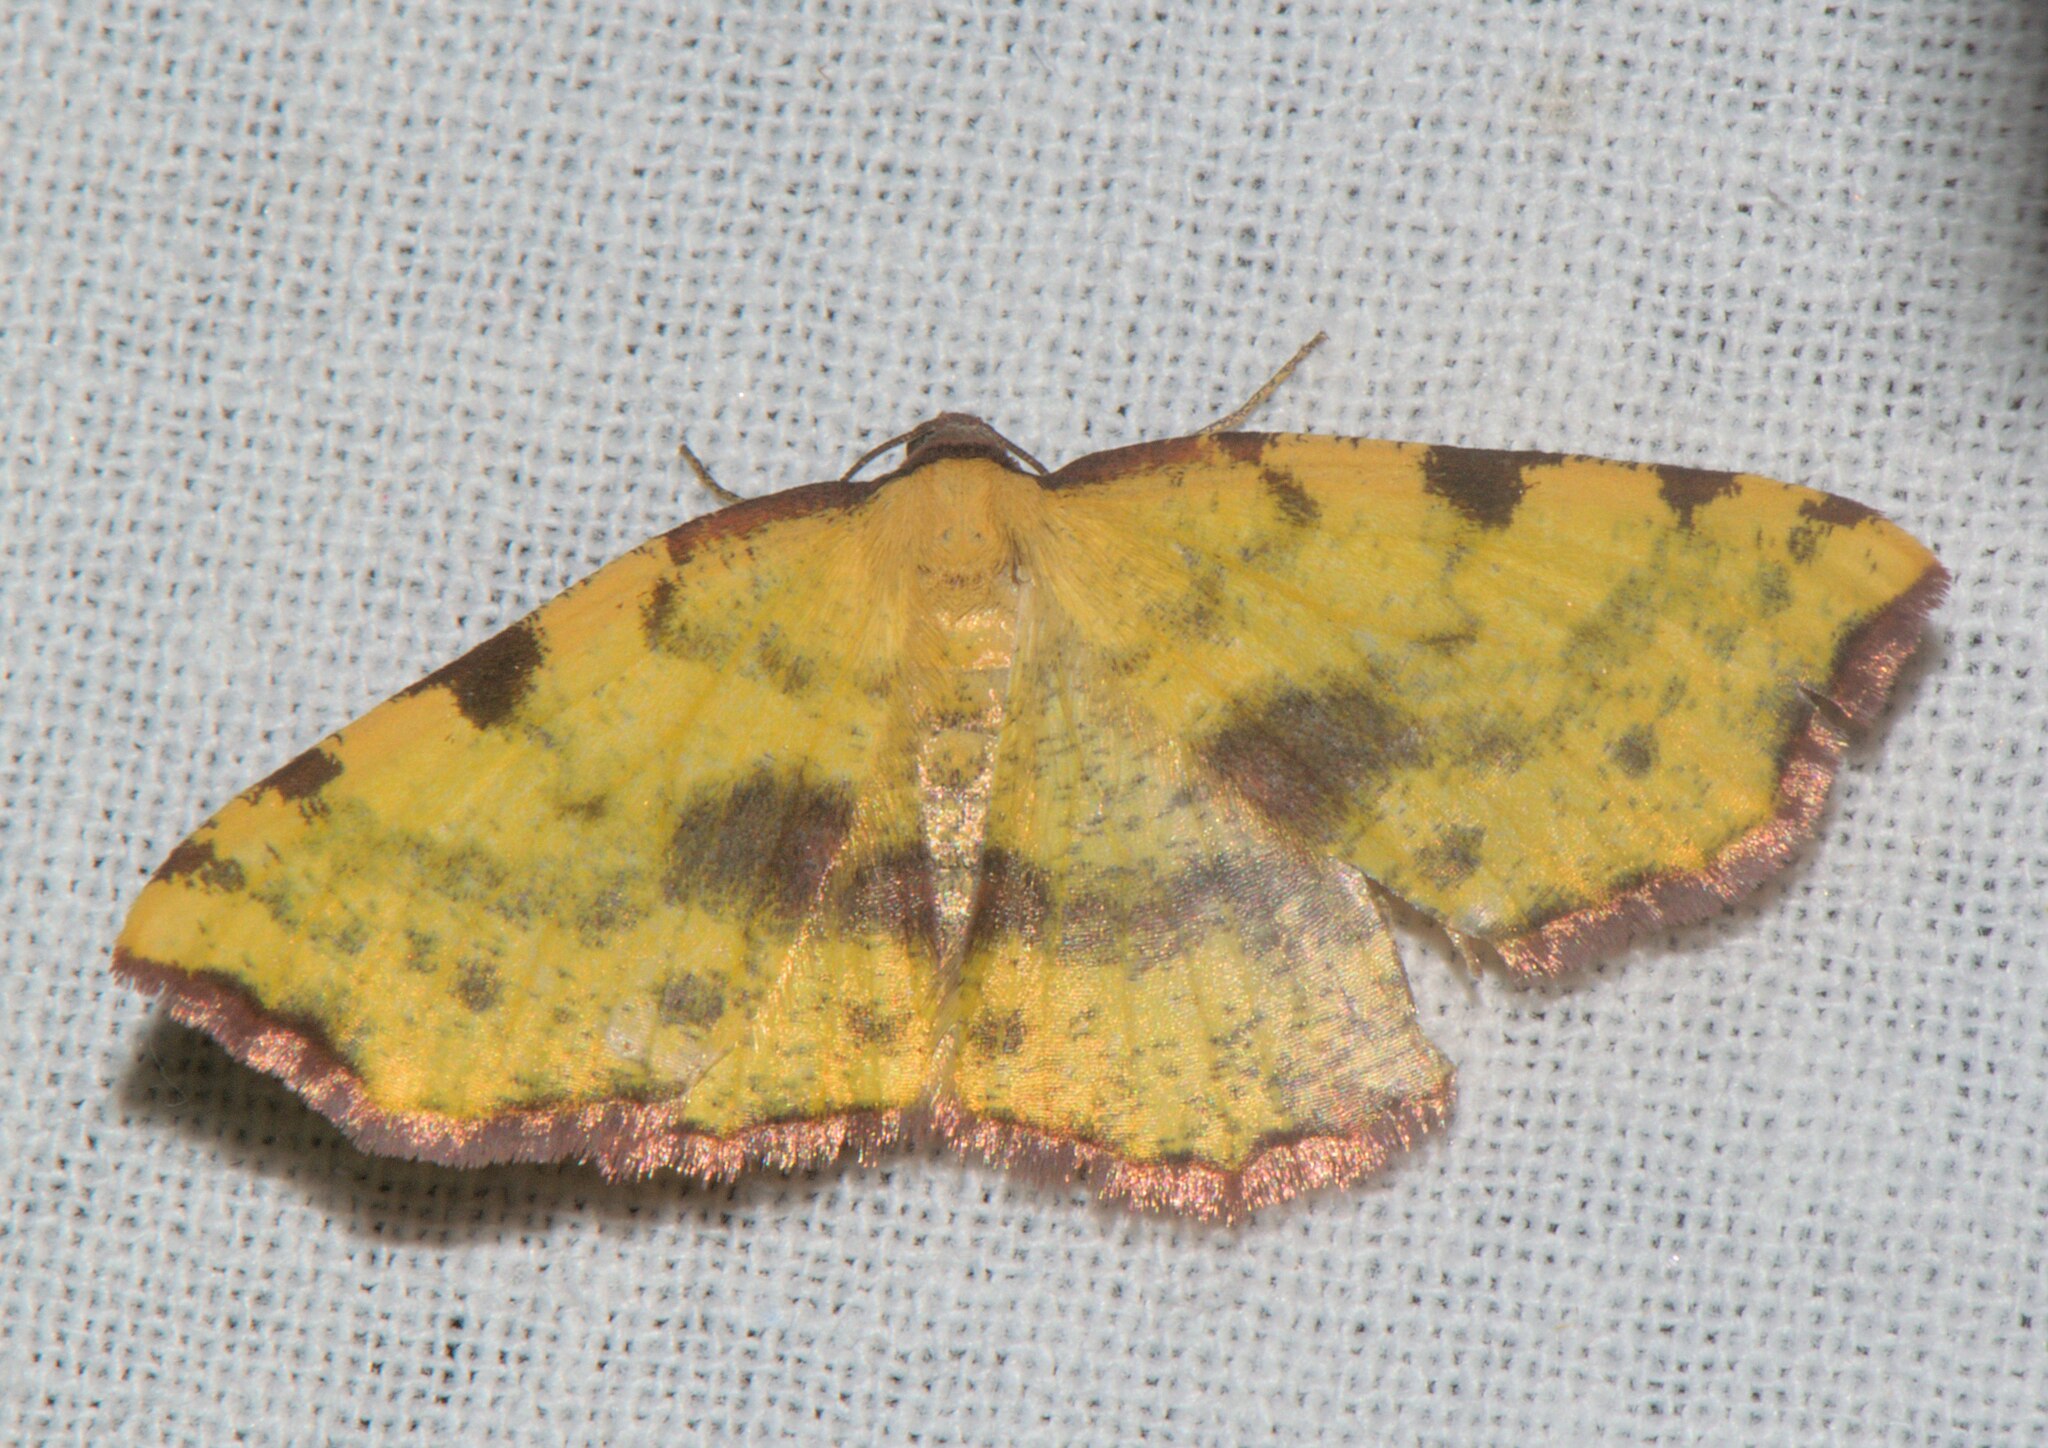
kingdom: Animalia
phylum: Arthropoda
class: Insecta
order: Lepidoptera
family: Geometridae
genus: Pseudopanthera
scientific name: Pseudopanthera himaleyica
